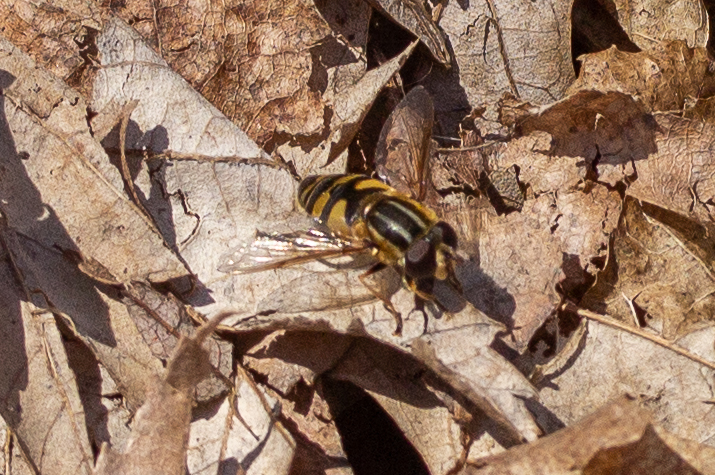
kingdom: Animalia
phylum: Arthropoda
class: Insecta
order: Diptera
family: Syrphidae
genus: Helophilus
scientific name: Helophilus fasciatus
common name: Narrow-headed marsh fly
